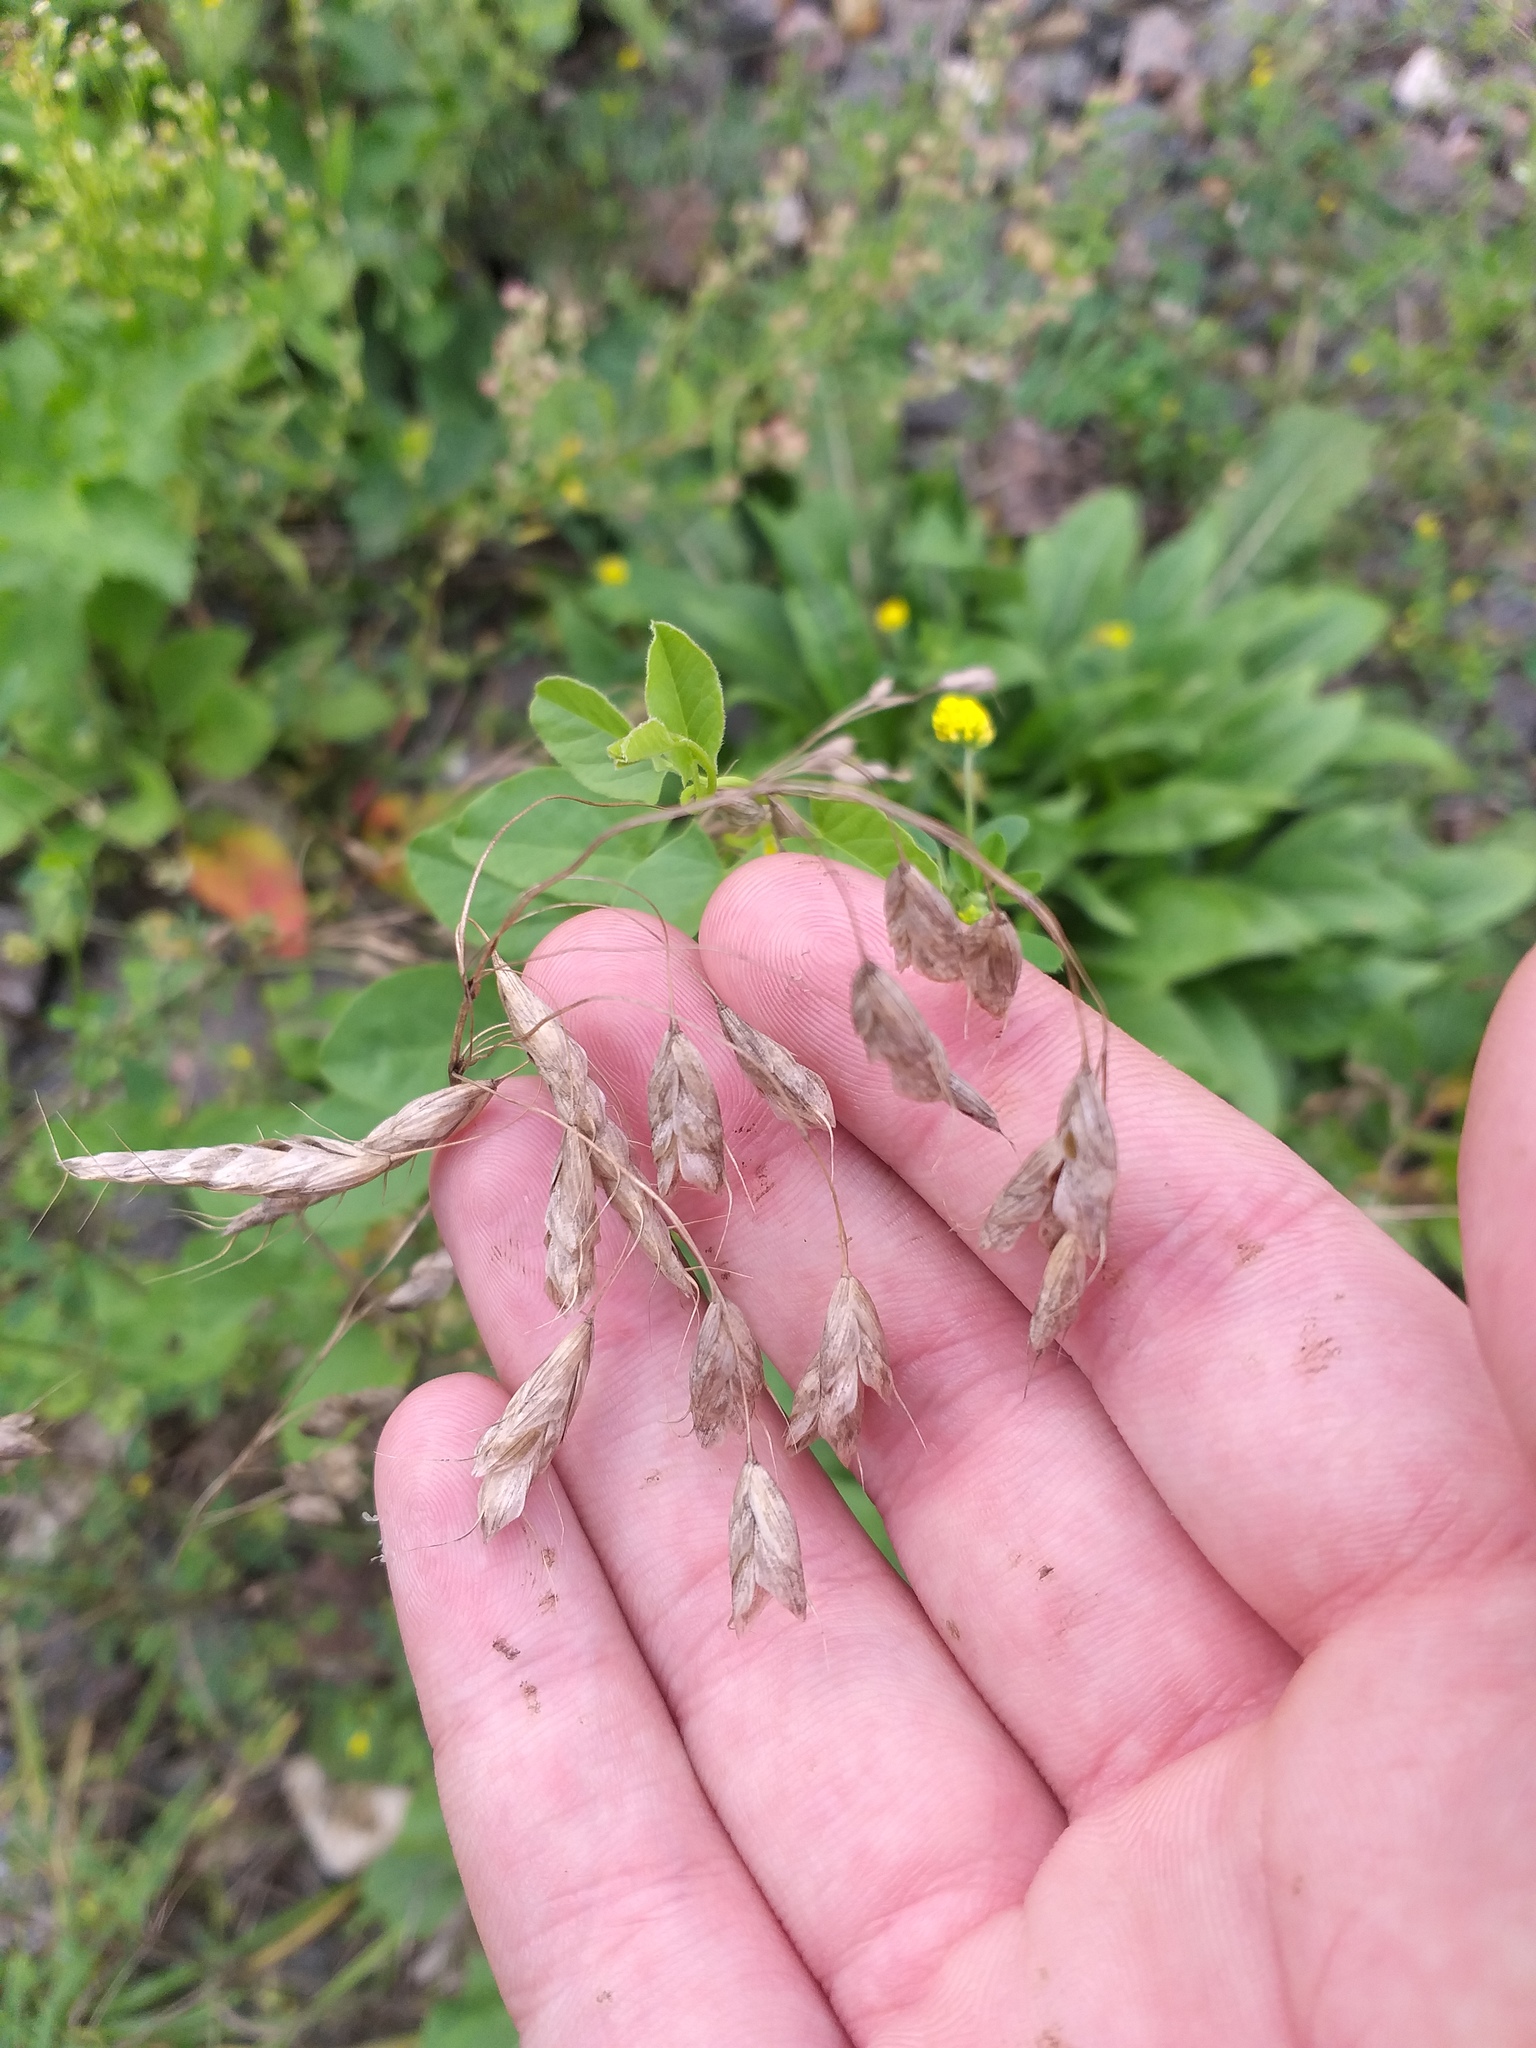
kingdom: Plantae
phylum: Tracheophyta
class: Liliopsida
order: Poales
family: Poaceae
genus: Bromus
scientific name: Bromus squarrosus
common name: Corn brome
